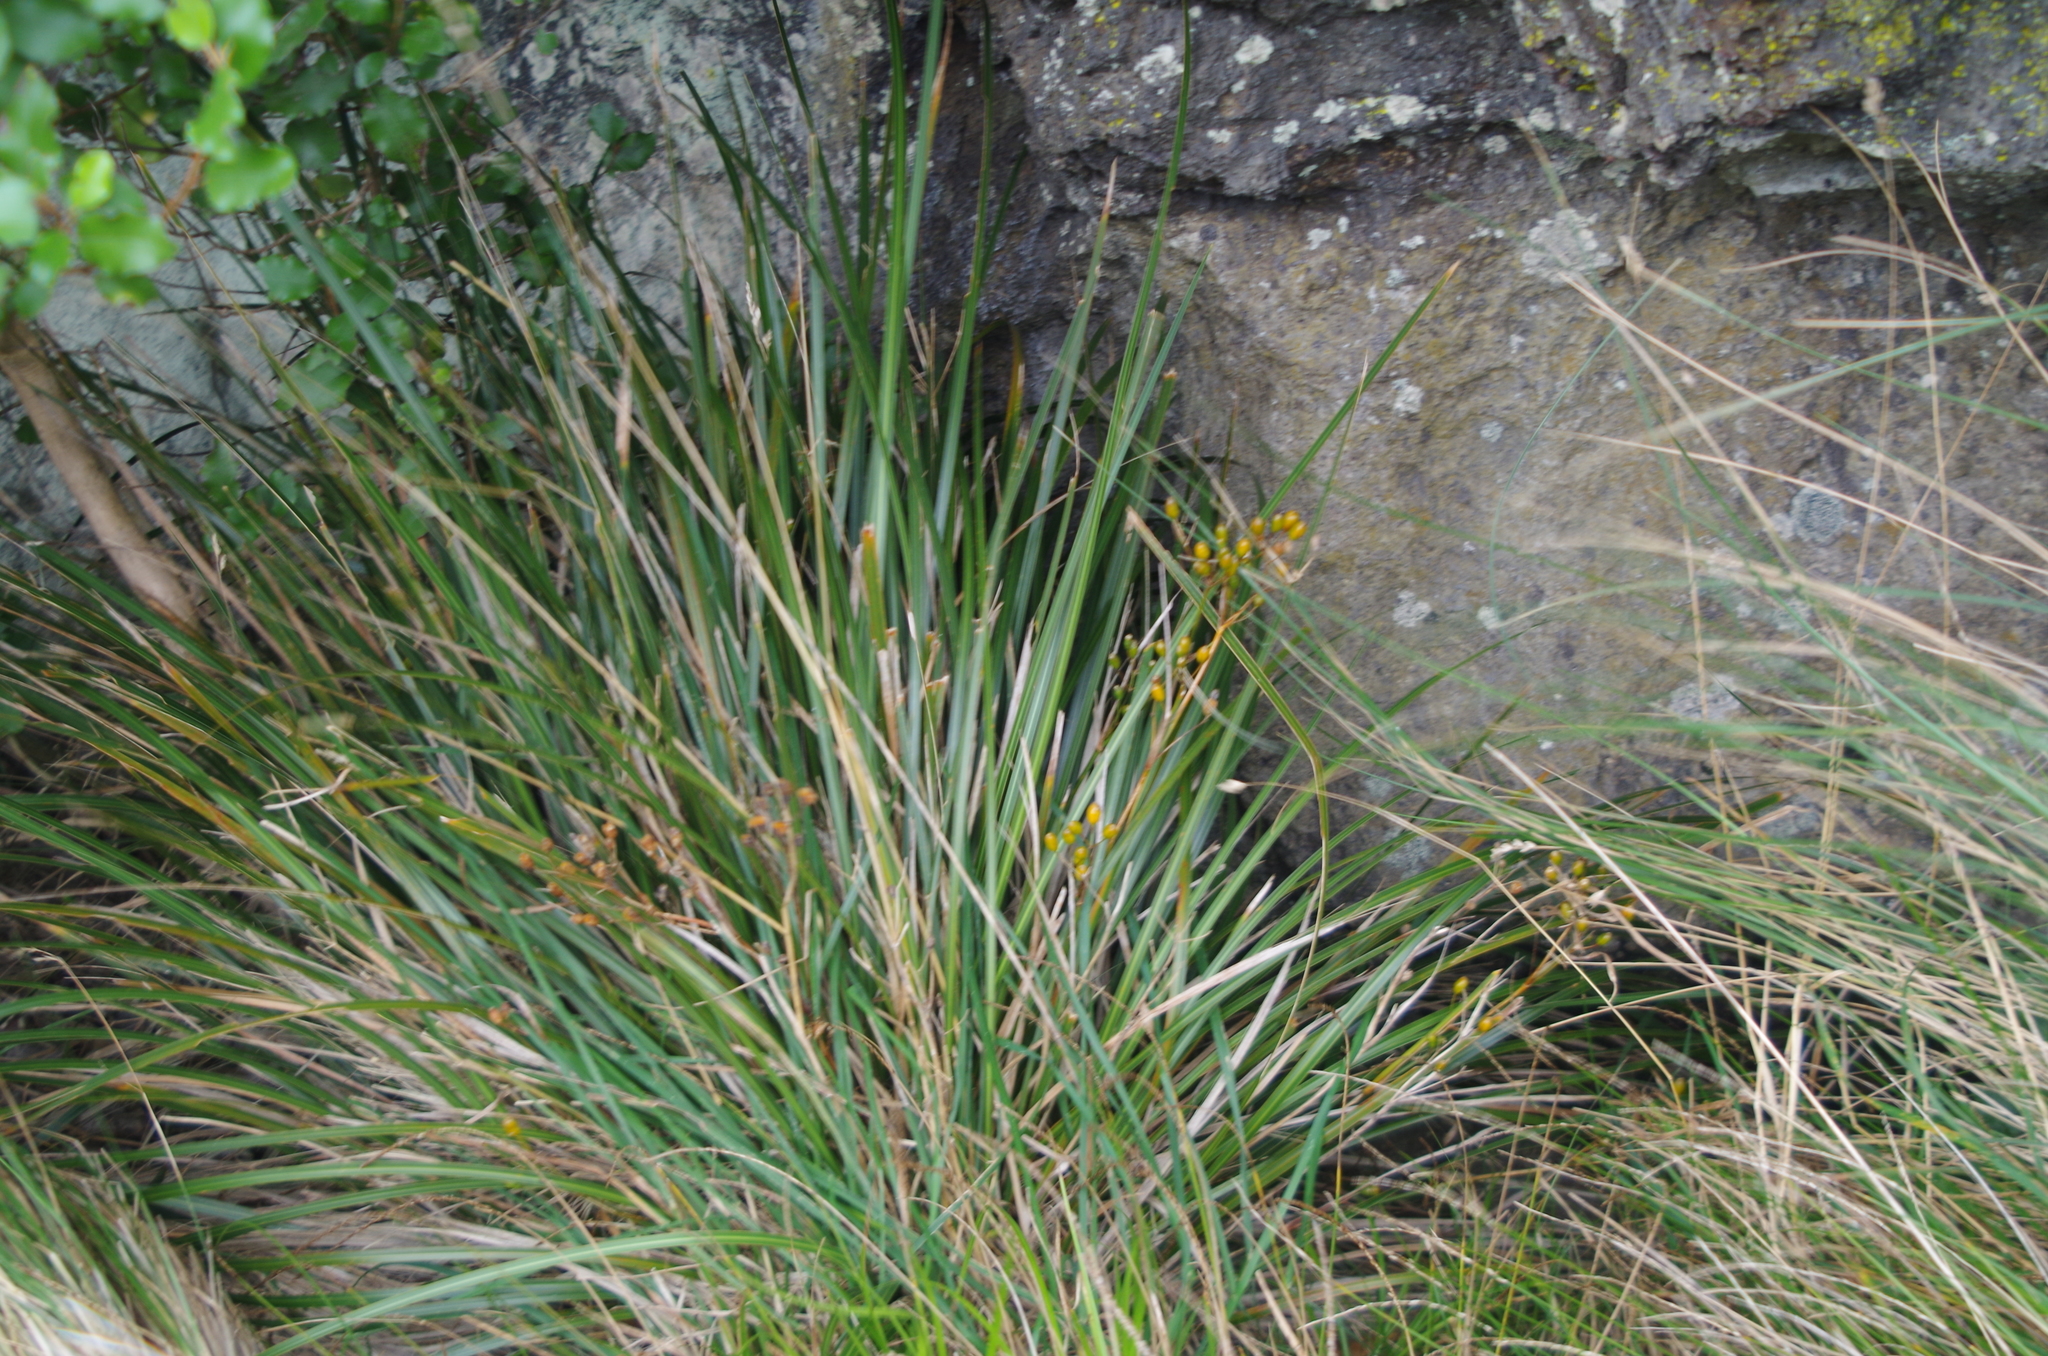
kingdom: Plantae
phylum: Tracheophyta
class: Liliopsida
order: Asparagales
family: Iridaceae
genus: Libertia
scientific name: Libertia ixioides
